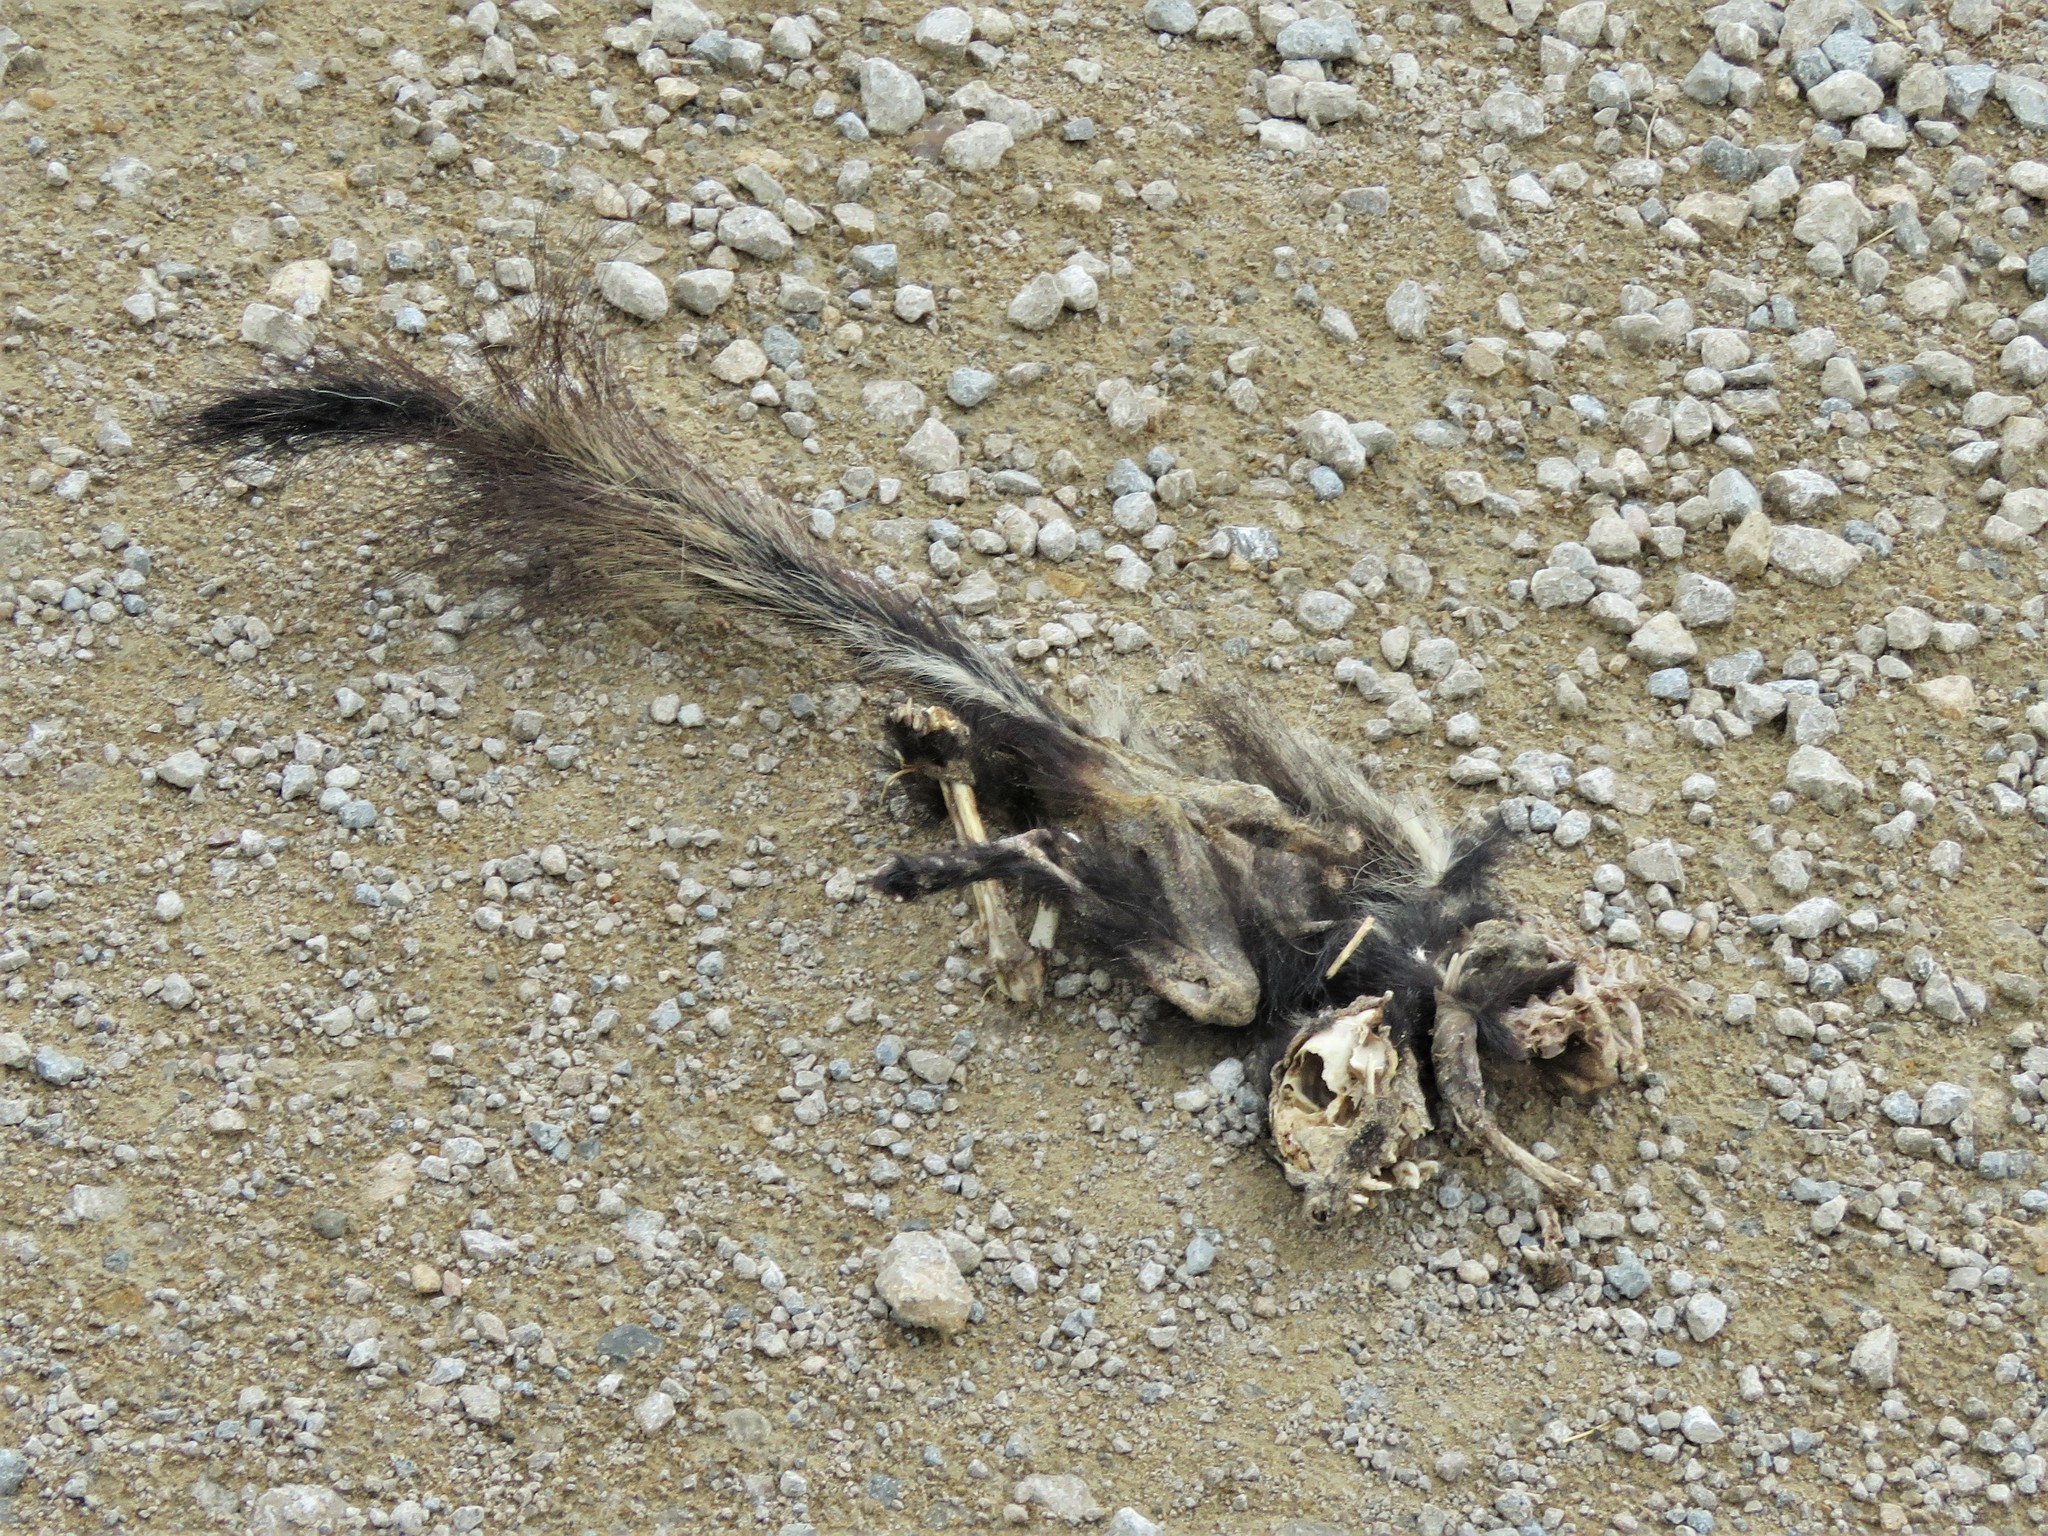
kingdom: Animalia
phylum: Chordata
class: Mammalia
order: Carnivora
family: Mephitidae
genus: Mephitis
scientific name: Mephitis mephitis
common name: Striped skunk
